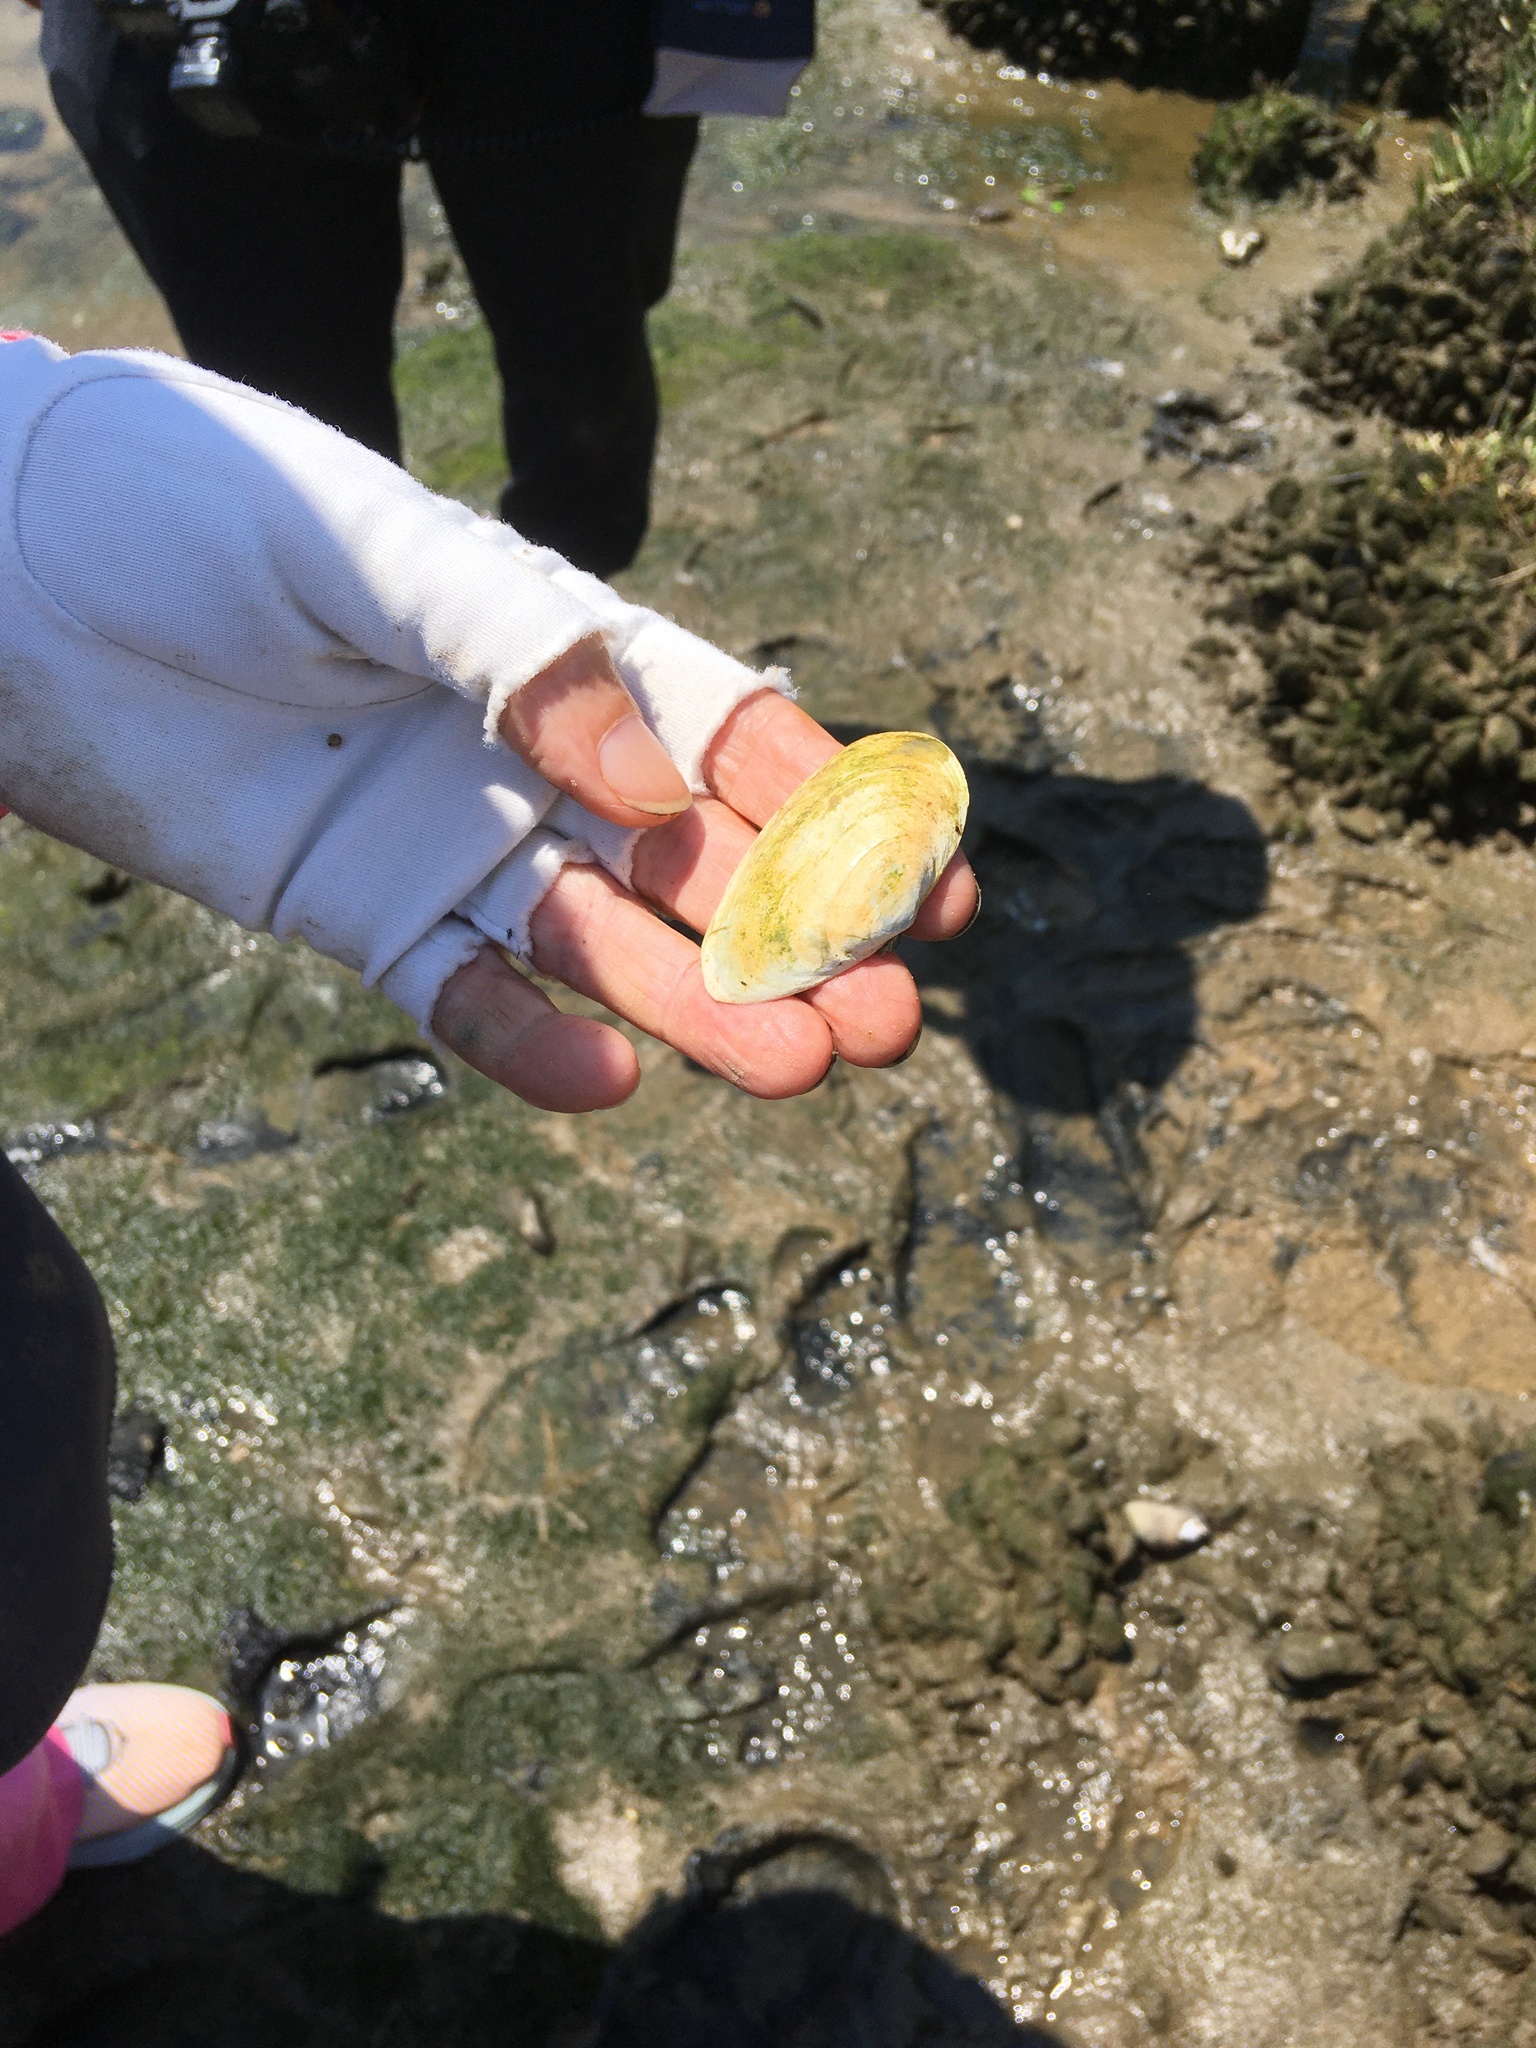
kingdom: Animalia
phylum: Mollusca
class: Bivalvia
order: Myida
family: Myidae
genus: Mya
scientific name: Mya arenaria
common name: Soft-shelled clam
